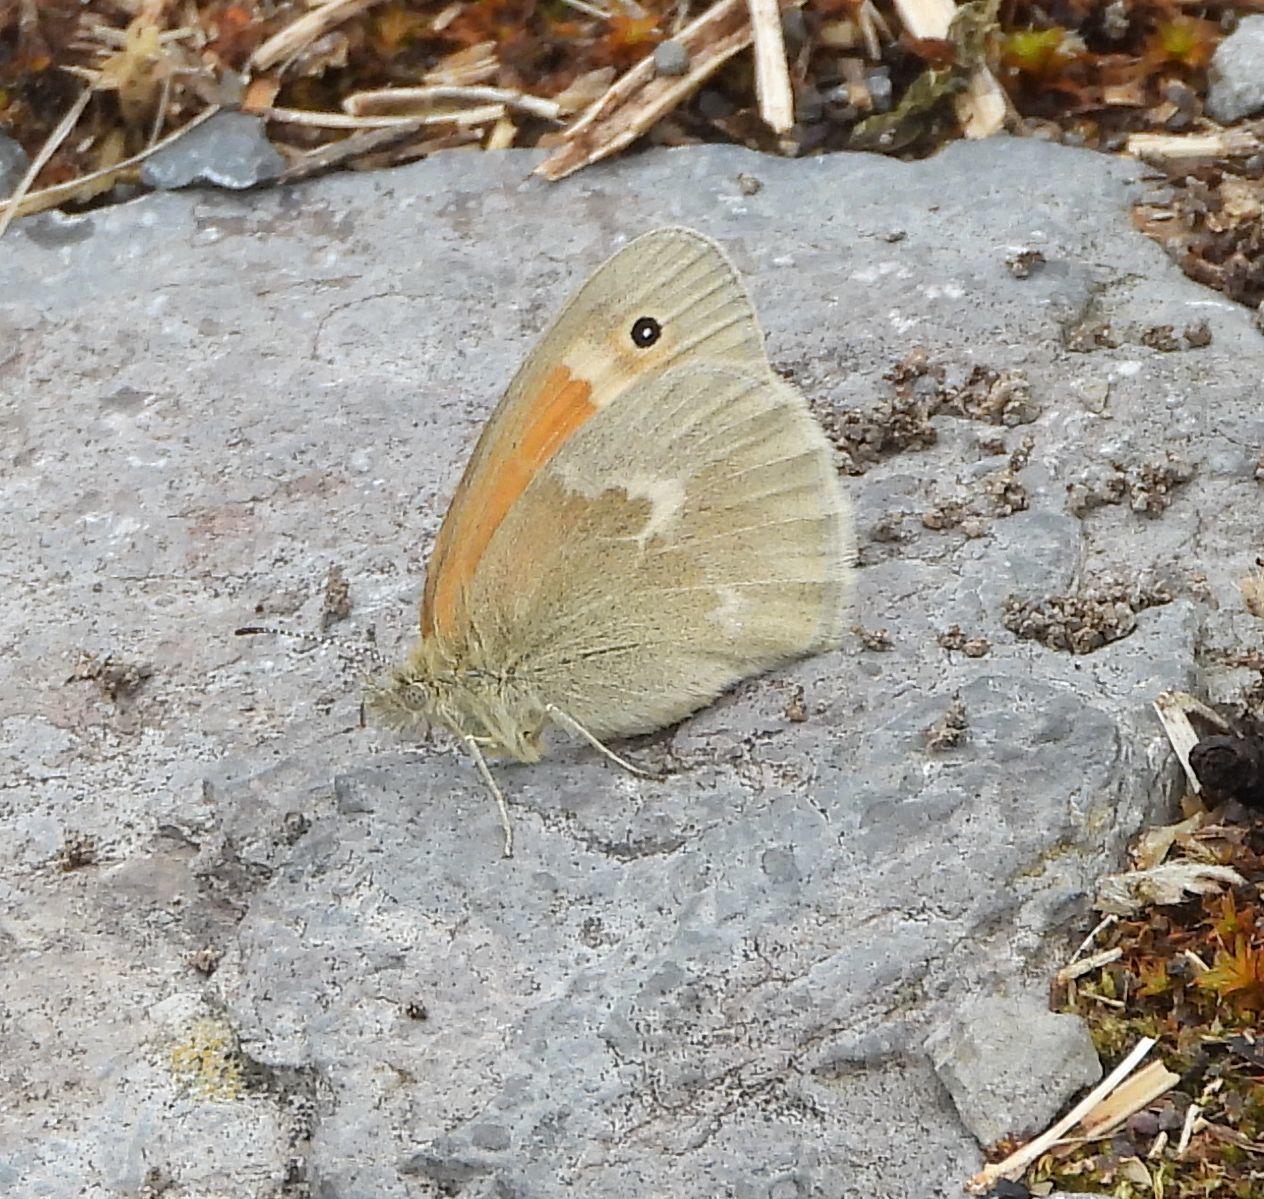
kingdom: Animalia
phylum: Arthropoda
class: Insecta
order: Lepidoptera
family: Nymphalidae
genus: Coenonympha
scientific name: Coenonympha california
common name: Common ringlet
